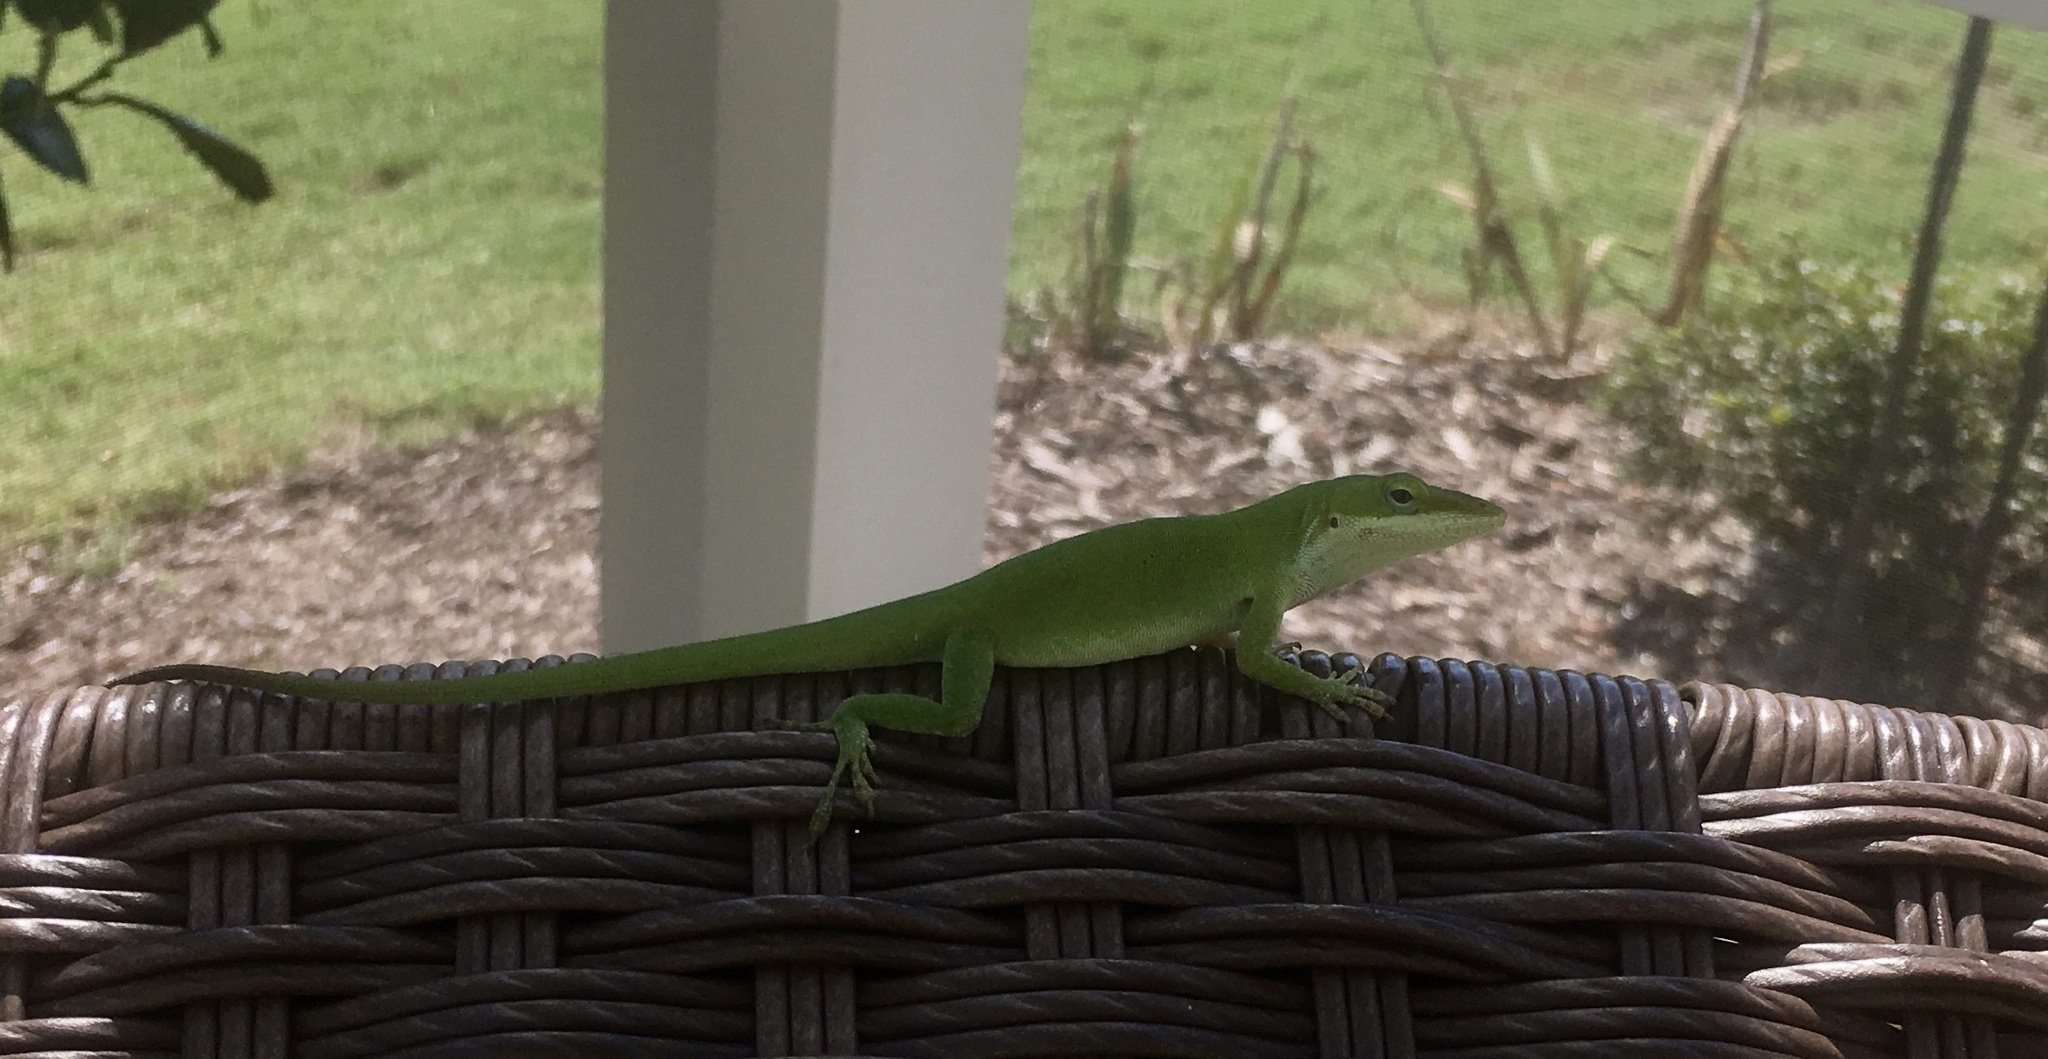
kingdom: Animalia
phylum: Chordata
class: Squamata
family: Dactyloidae
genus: Anolis
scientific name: Anolis carolinensis
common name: Green anole
